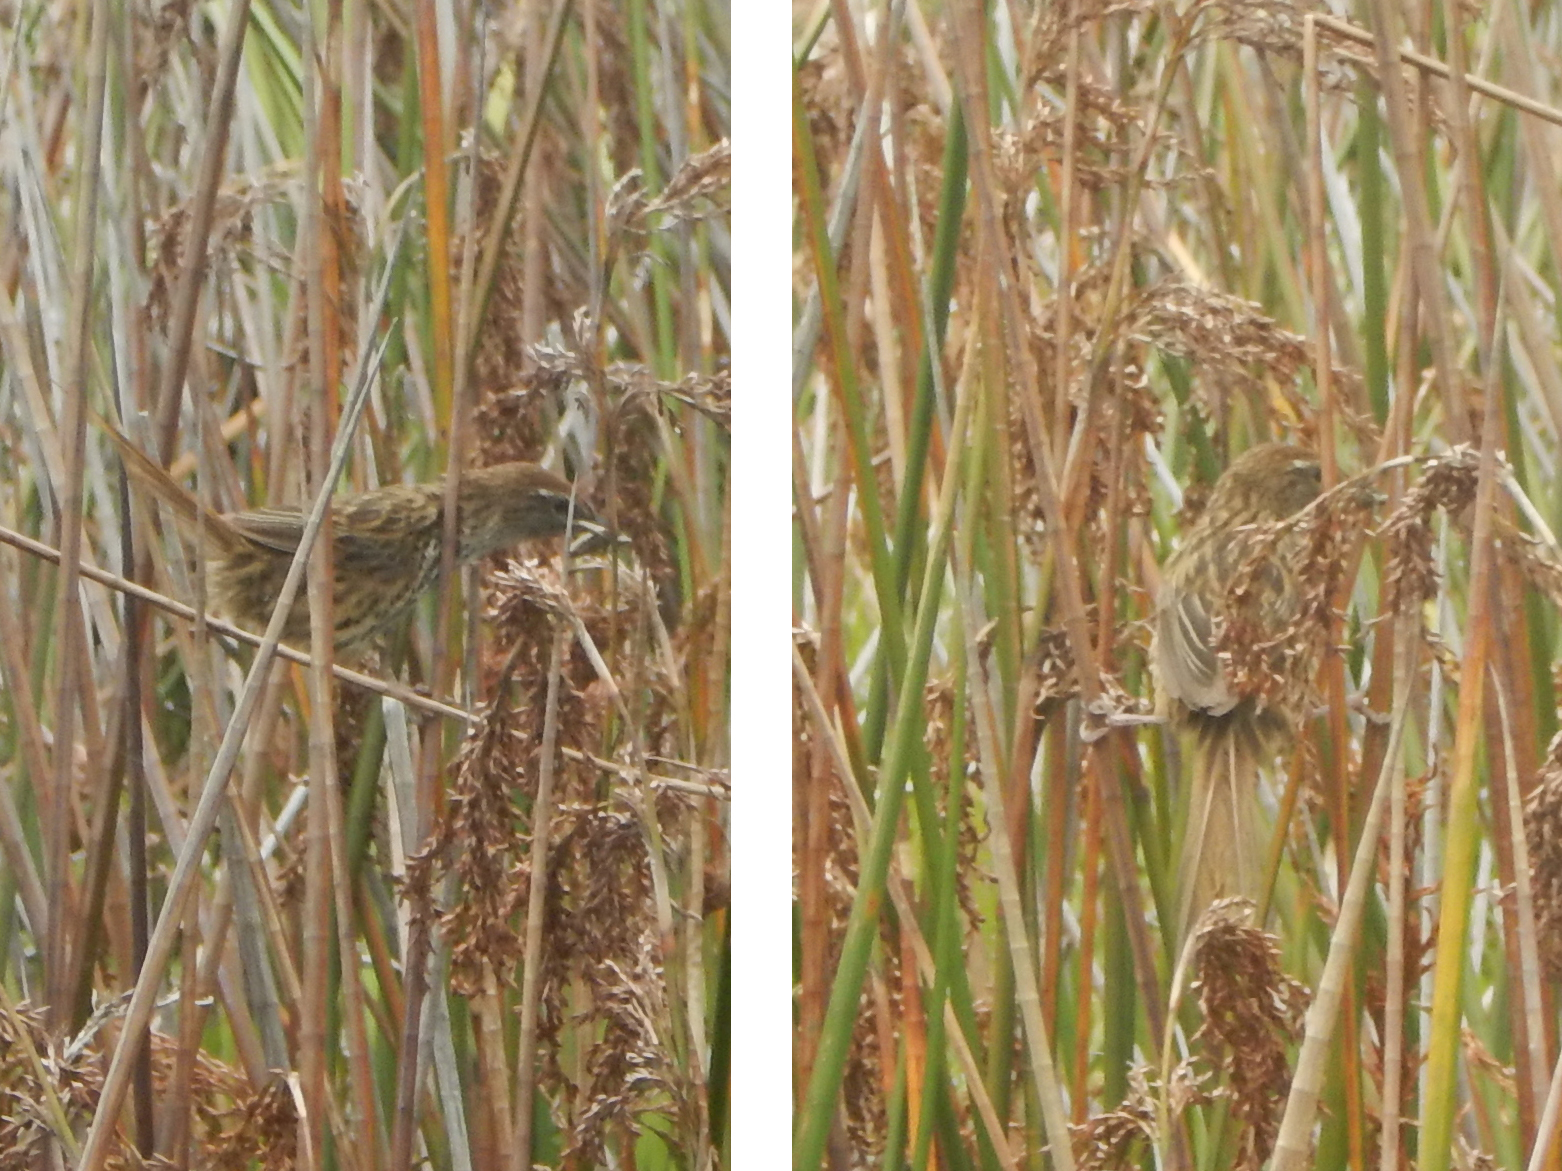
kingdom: Animalia
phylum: Chordata
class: Aves
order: Passeriformes
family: Locustellidae
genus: Megalurus
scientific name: Megalurus punctatus
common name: New zealand fernbird
